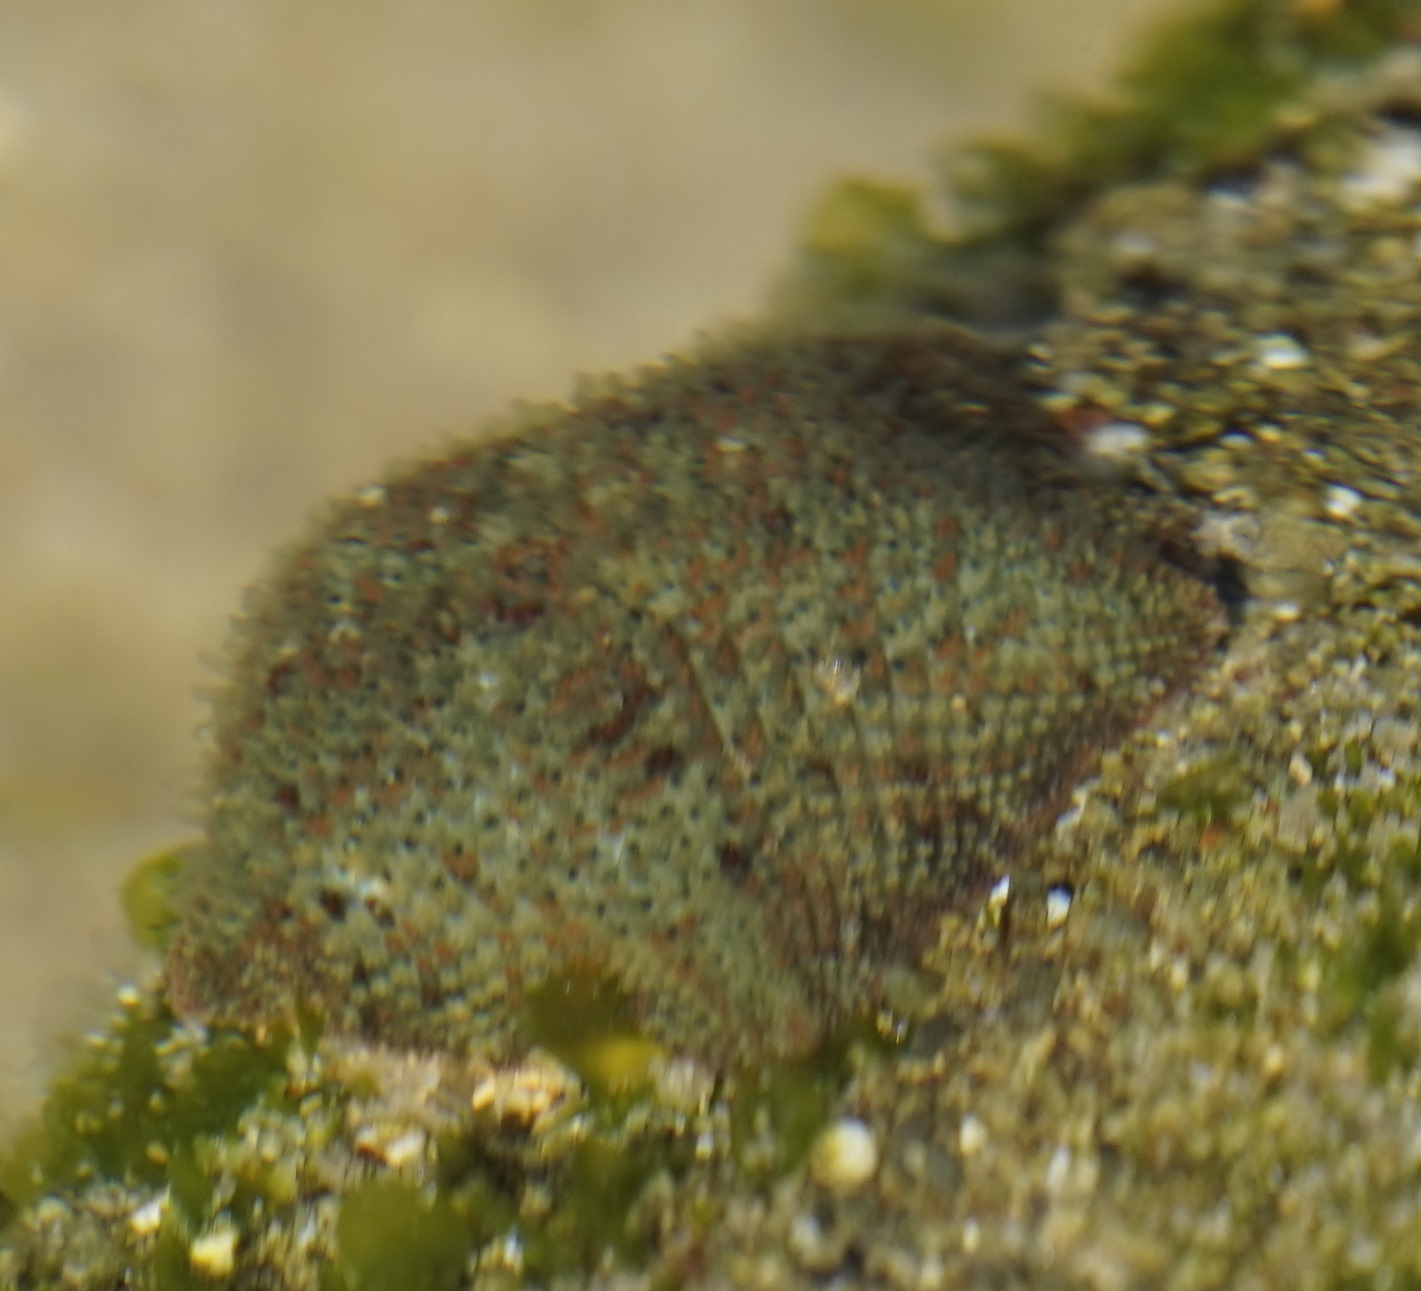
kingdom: Animalia
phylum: Echinodermata
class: Asteroidea
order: Valvatida
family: Asterinidae
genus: Parvulastra
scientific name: Parvulastra exigua
